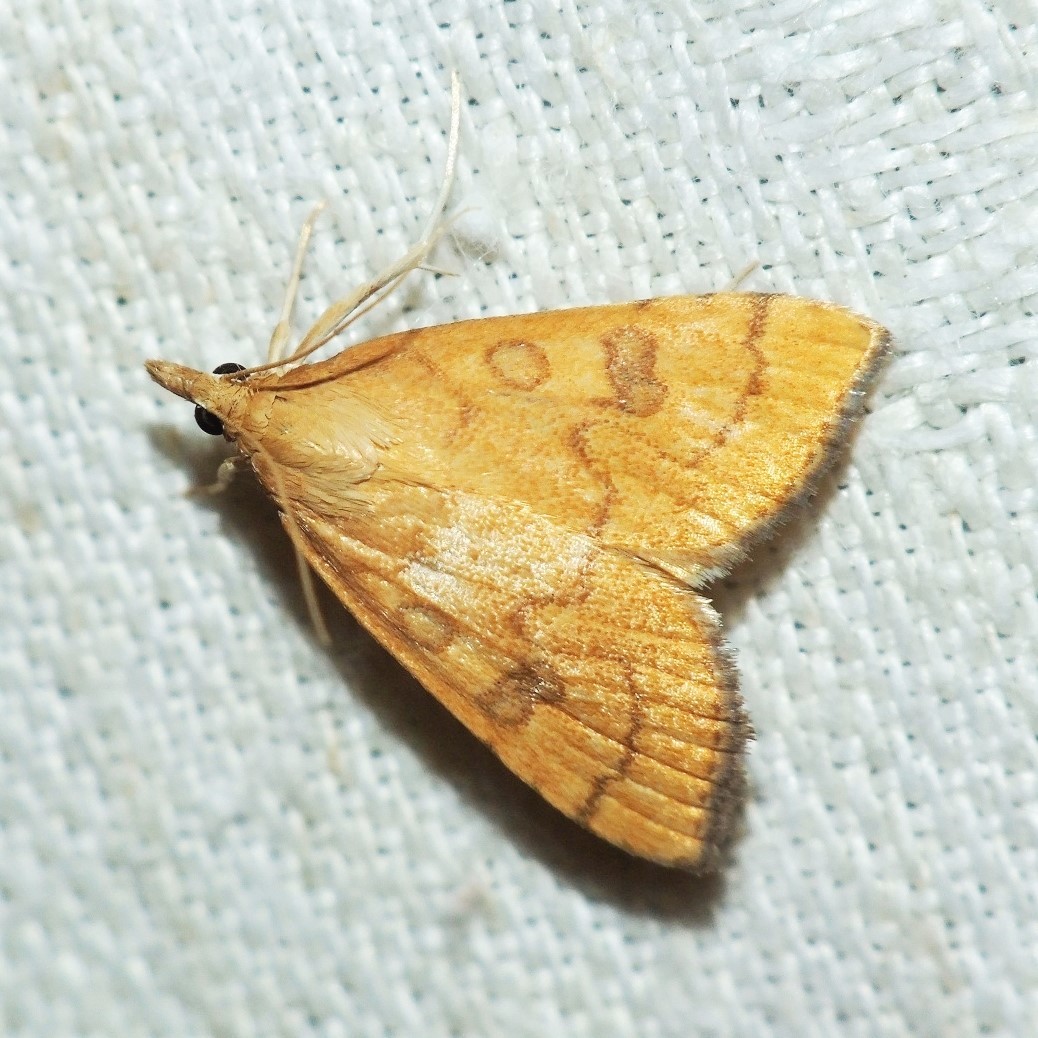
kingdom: Animalia
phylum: Arthropoda
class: Insecta
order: Lepidoptera
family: Crambidae
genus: Udea
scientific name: Udea languidalis
